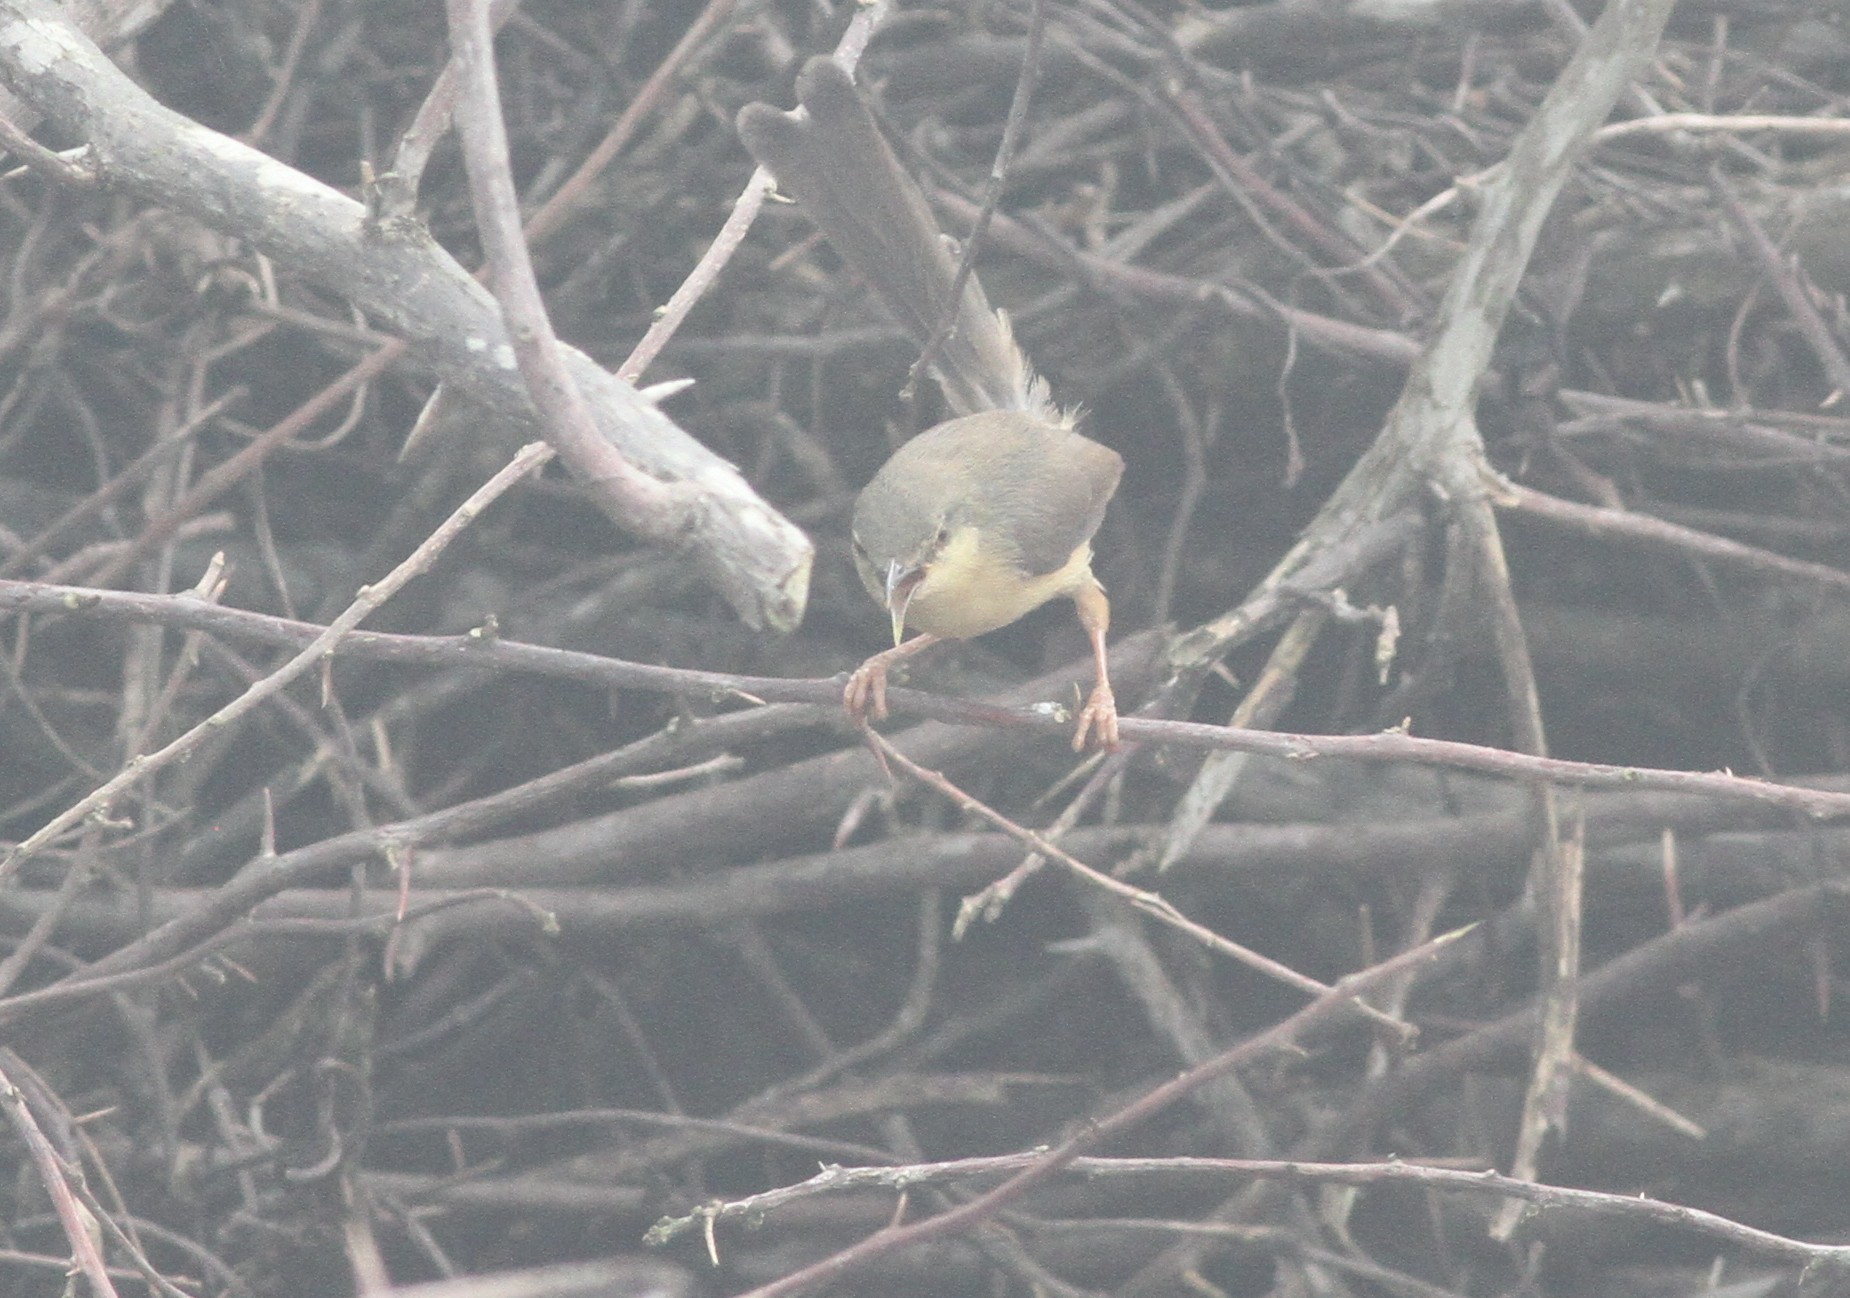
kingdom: Animalia
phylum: Chordata
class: Aves
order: Passeriformes
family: Cisticolidae
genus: Prinia
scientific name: Prinia socialis
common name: Ashy prinia
